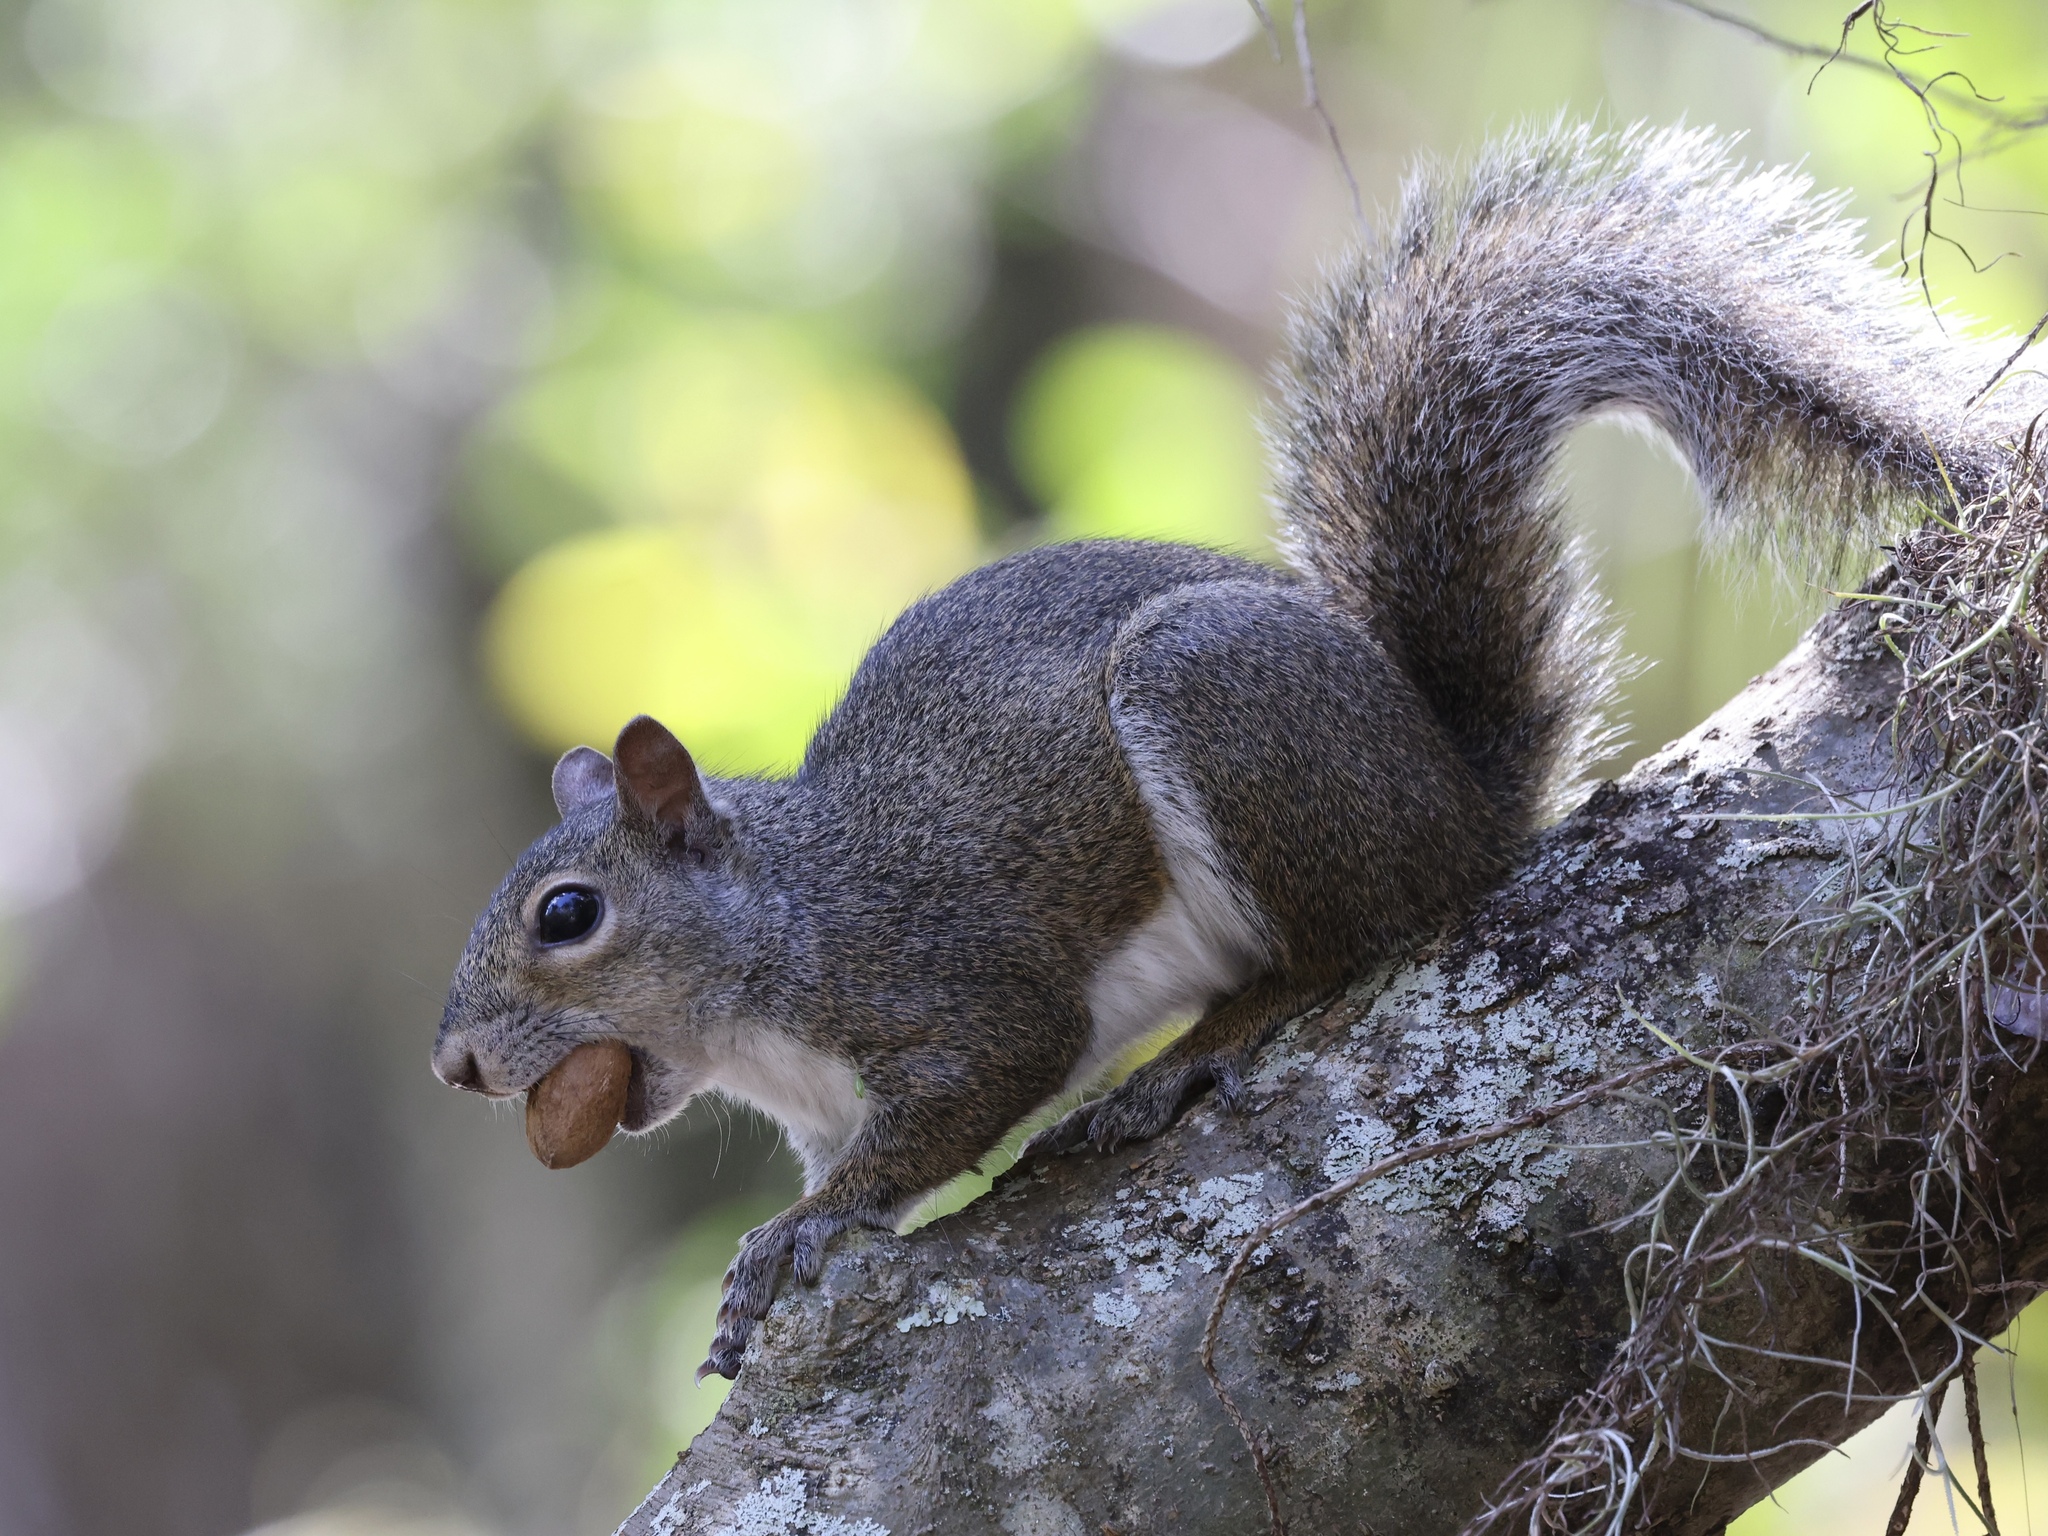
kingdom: Animalia
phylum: Chordata
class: Mammalia
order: Rodentia
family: Sciuridae
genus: Sciurus
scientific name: Sciurus carolinensis
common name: Eastern gray squirrel
